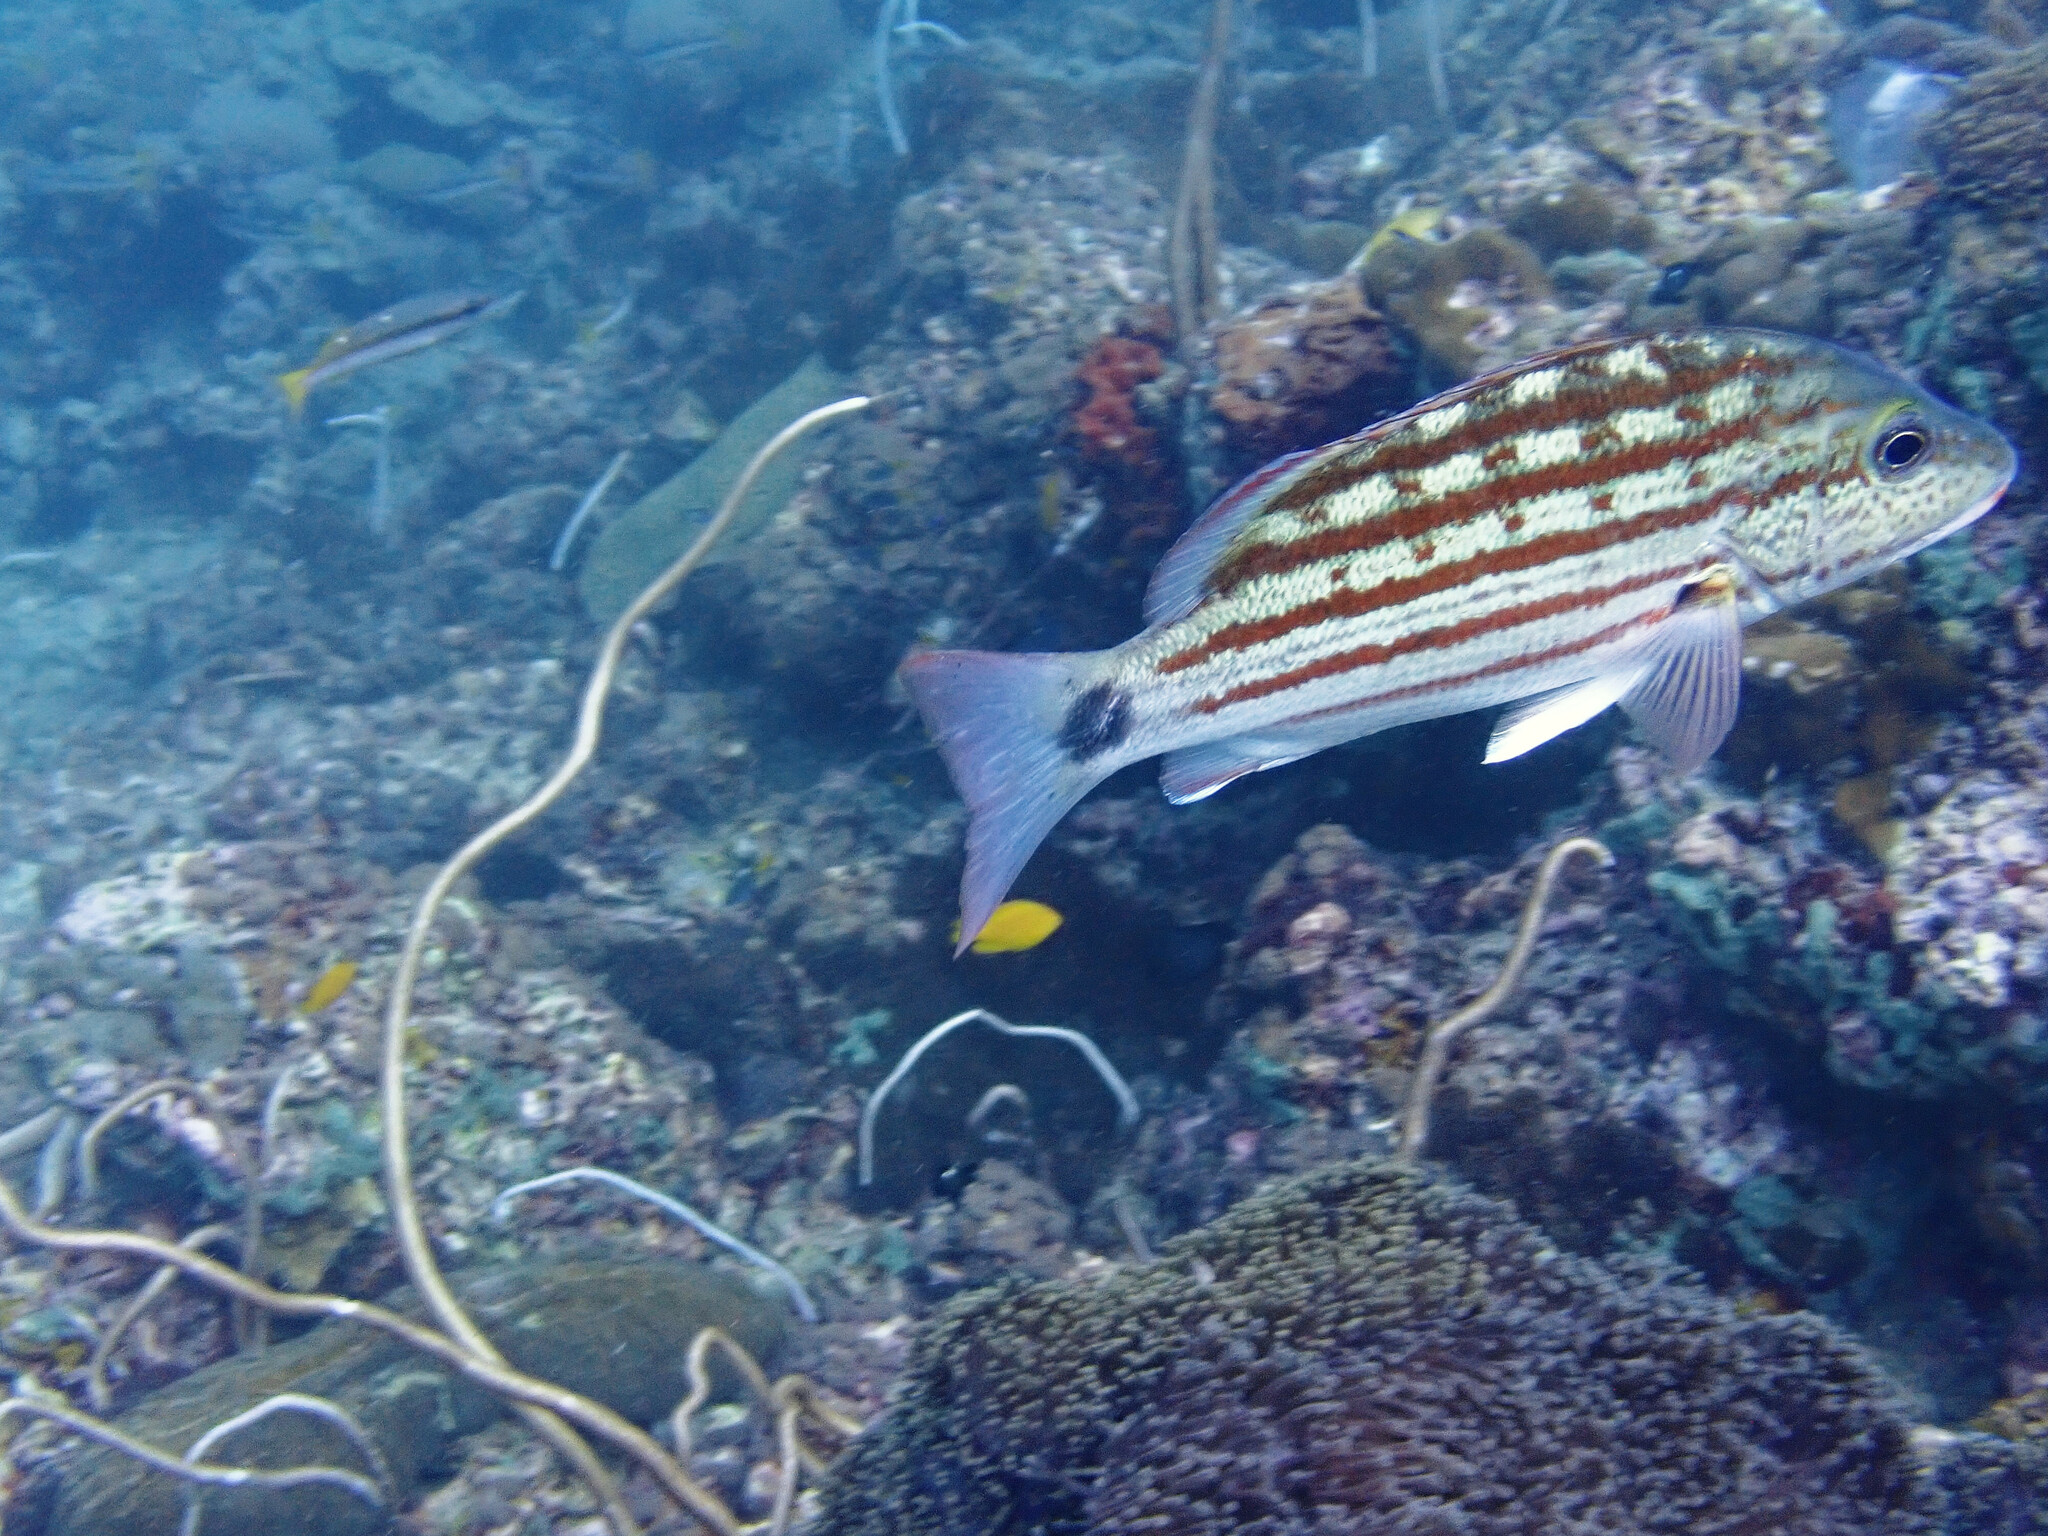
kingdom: Animalia
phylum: Chordata
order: Perciformes
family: Lutjanidae
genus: Lutjanus
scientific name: Lutjanus decussatus
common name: Checkered snapper
